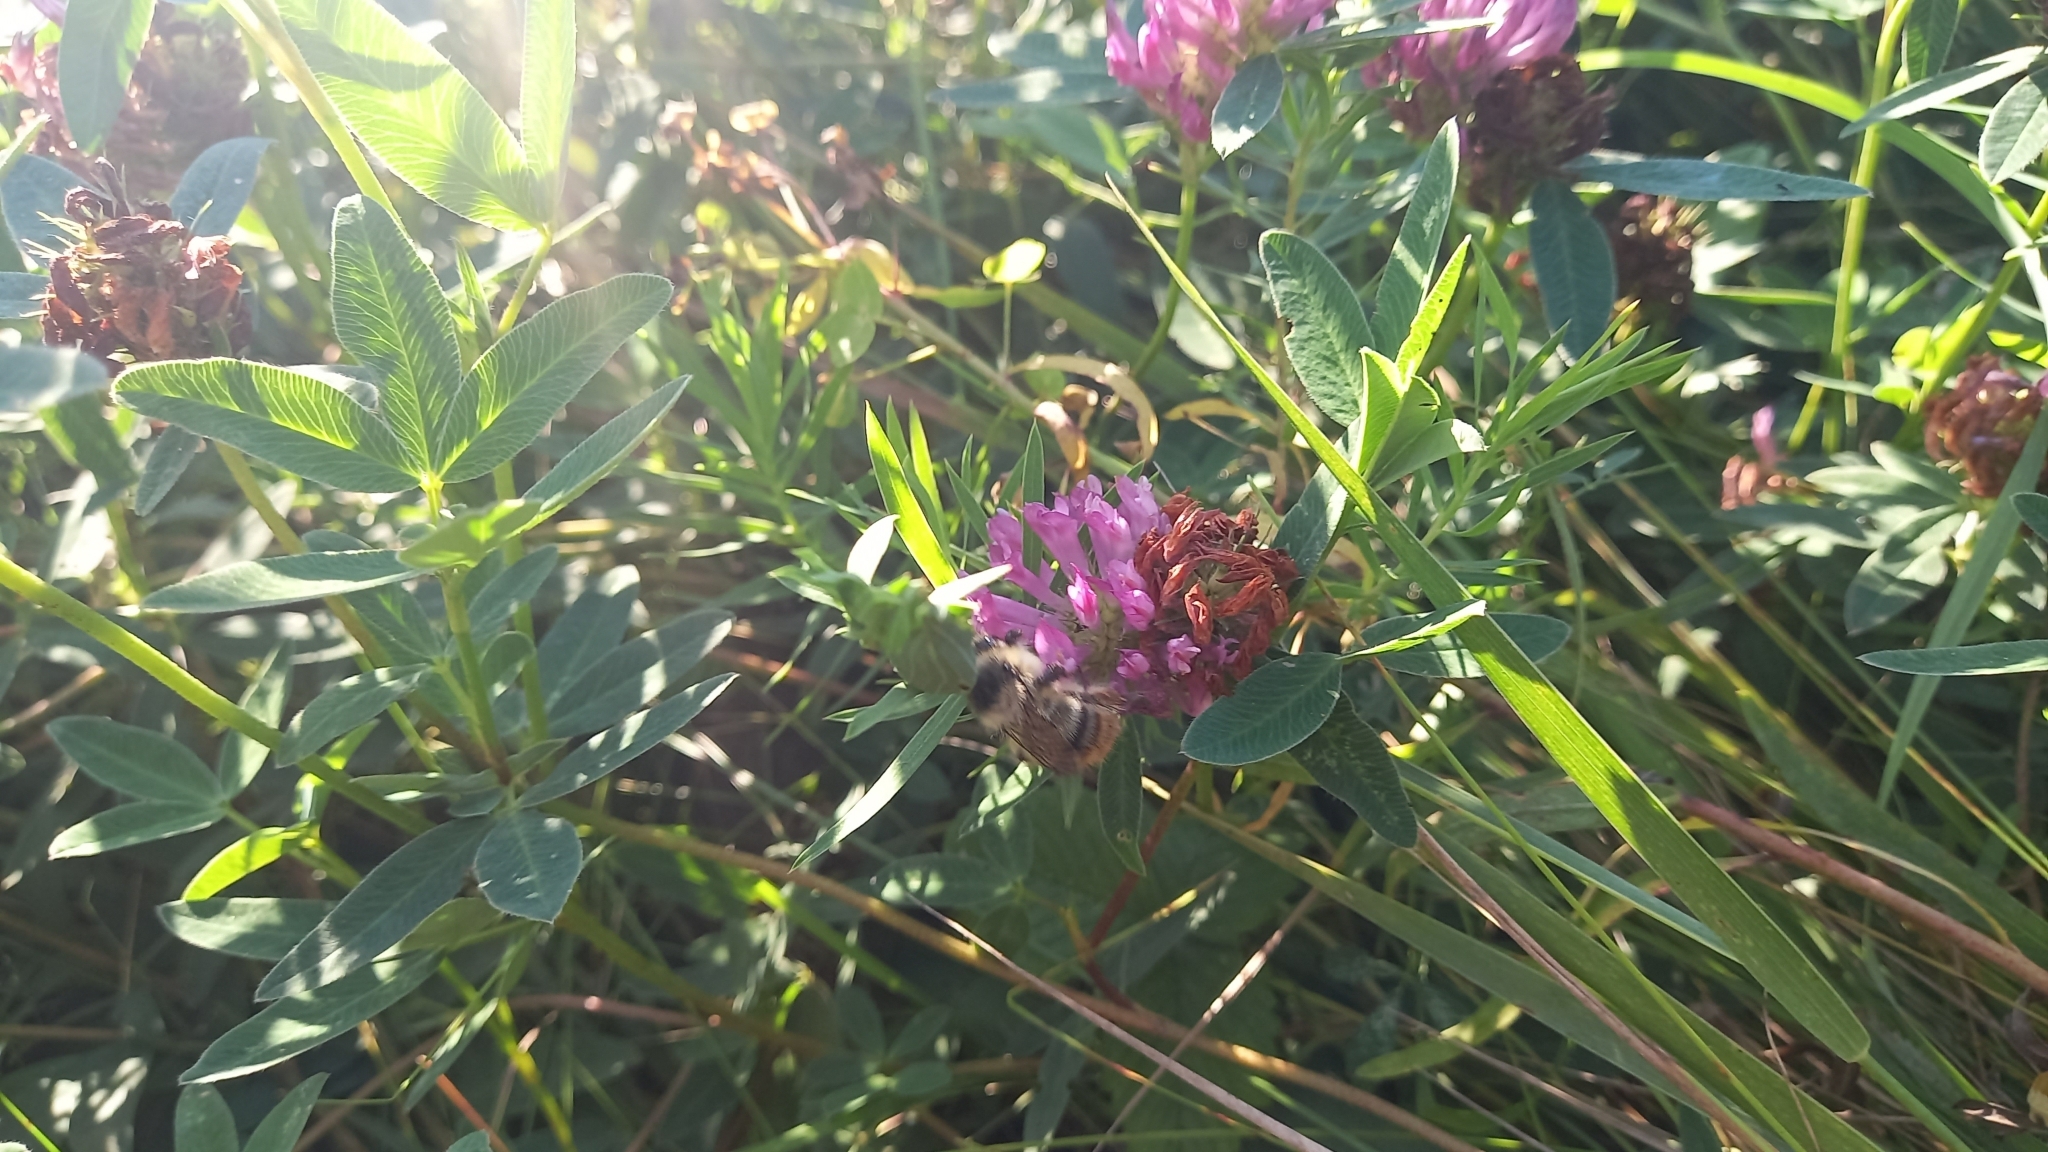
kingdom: Animalia
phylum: Arthropoda
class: Insecta
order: Hymenoptera
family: Apidae
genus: Bombus
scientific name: Bombus sylvarum
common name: Shrill carder bee
